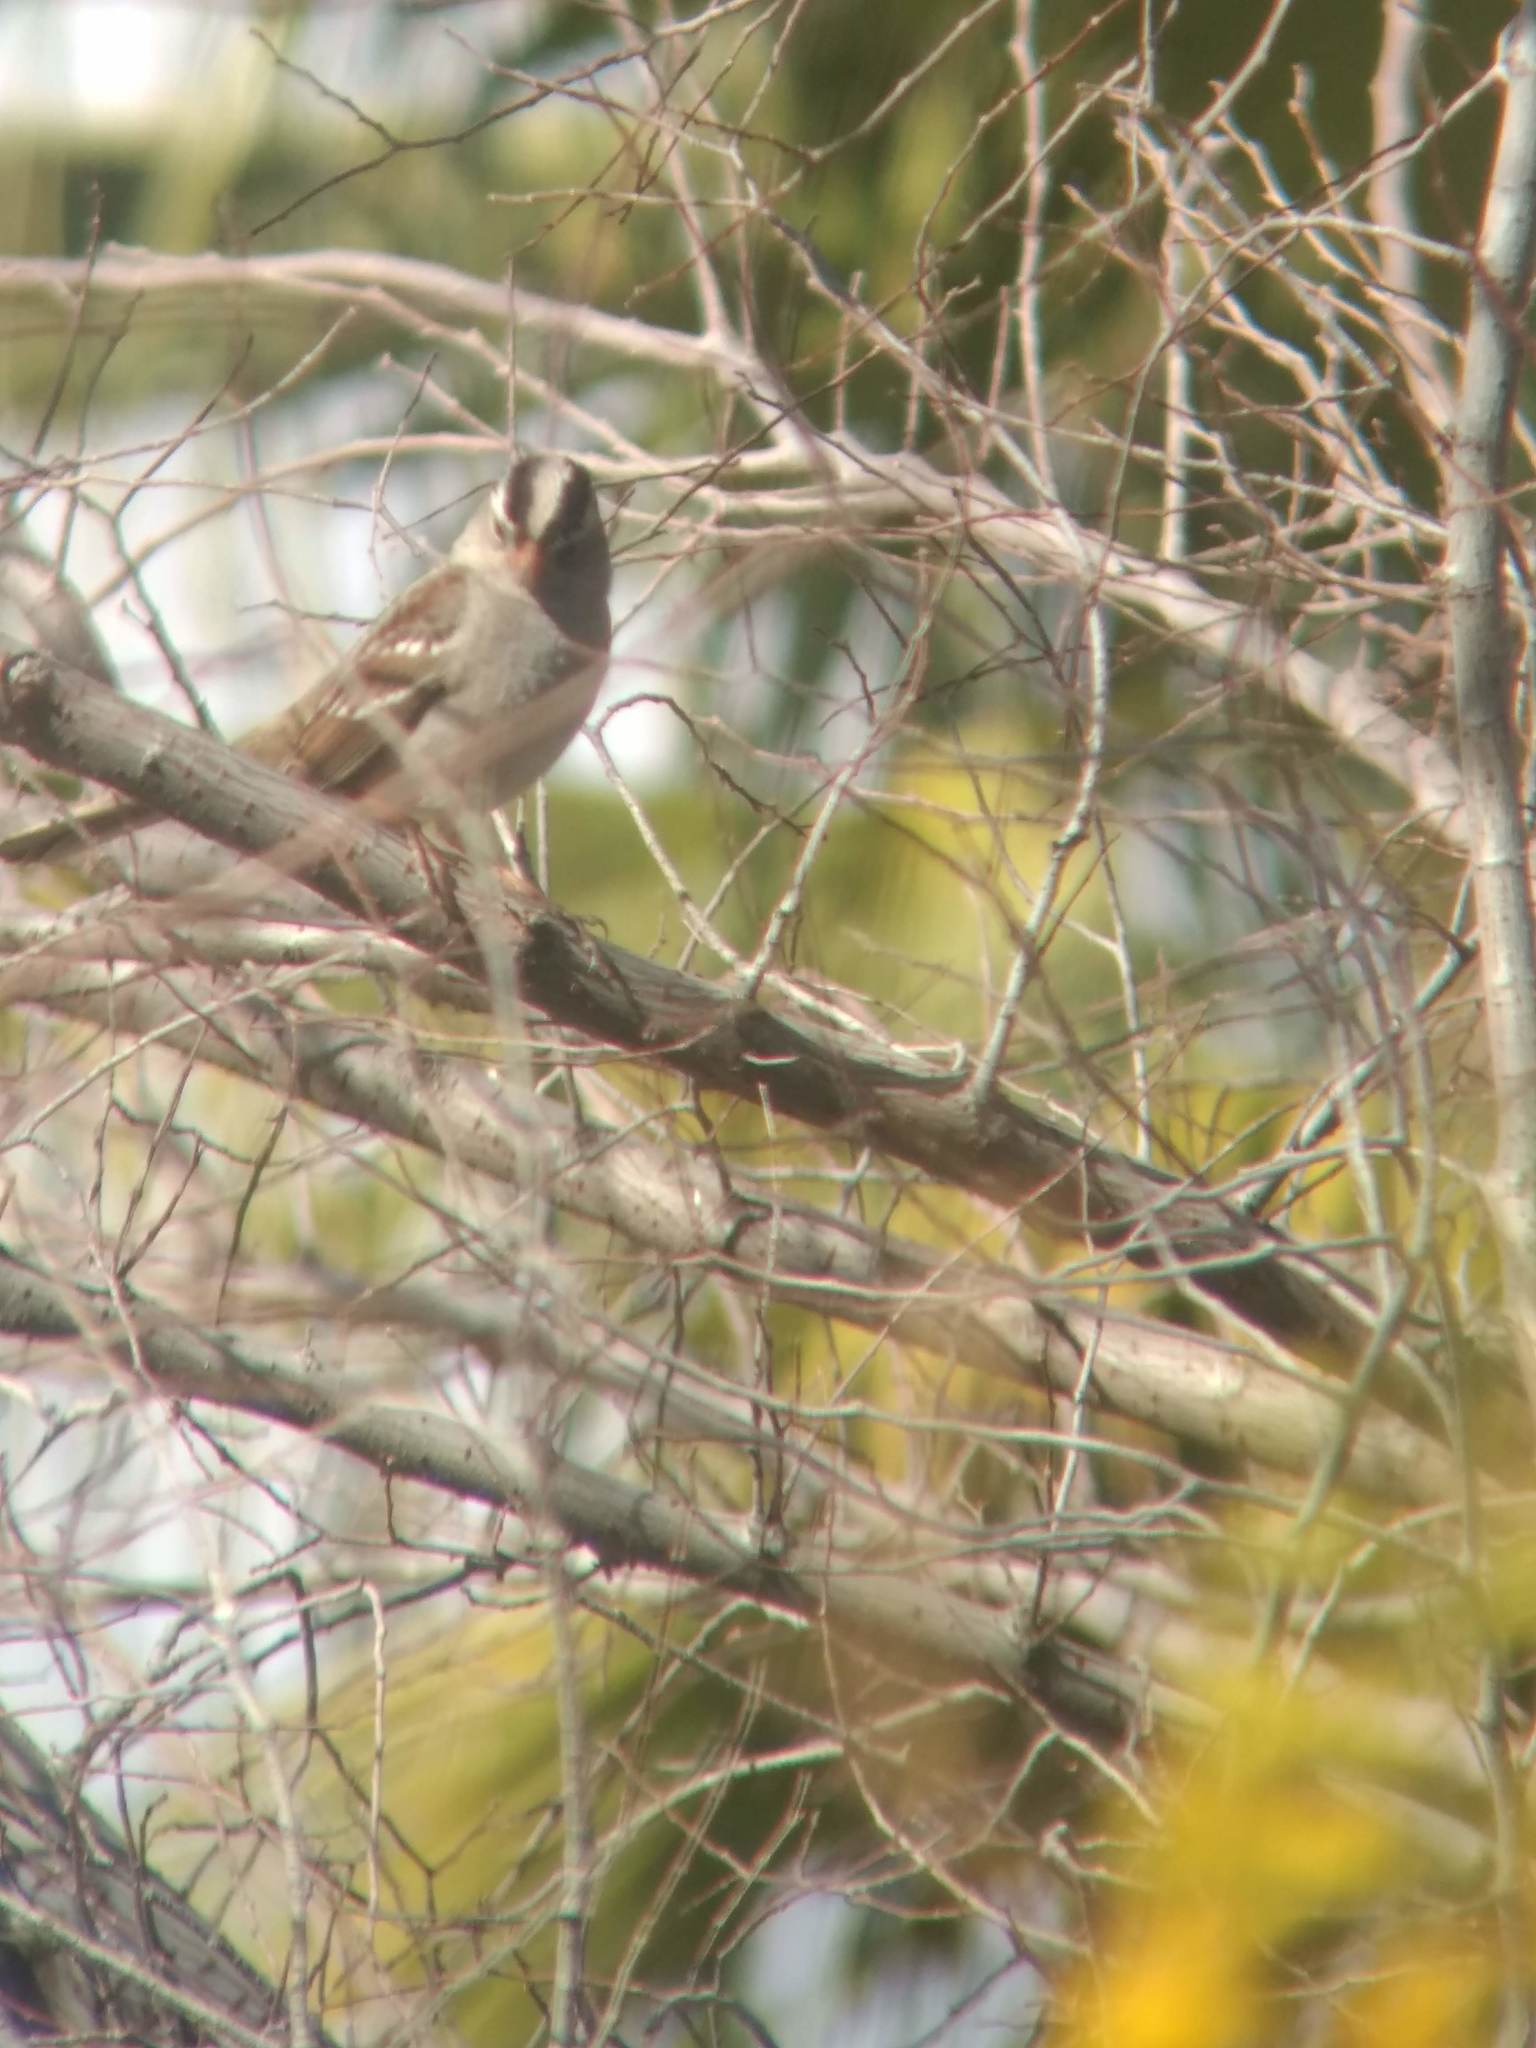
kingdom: Animalia
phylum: Chordata
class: Aves
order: Passeriformes
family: Passerellidae
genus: Zonotrichia
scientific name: Zonotrichia leucophrys
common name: White-crowned sparrow
